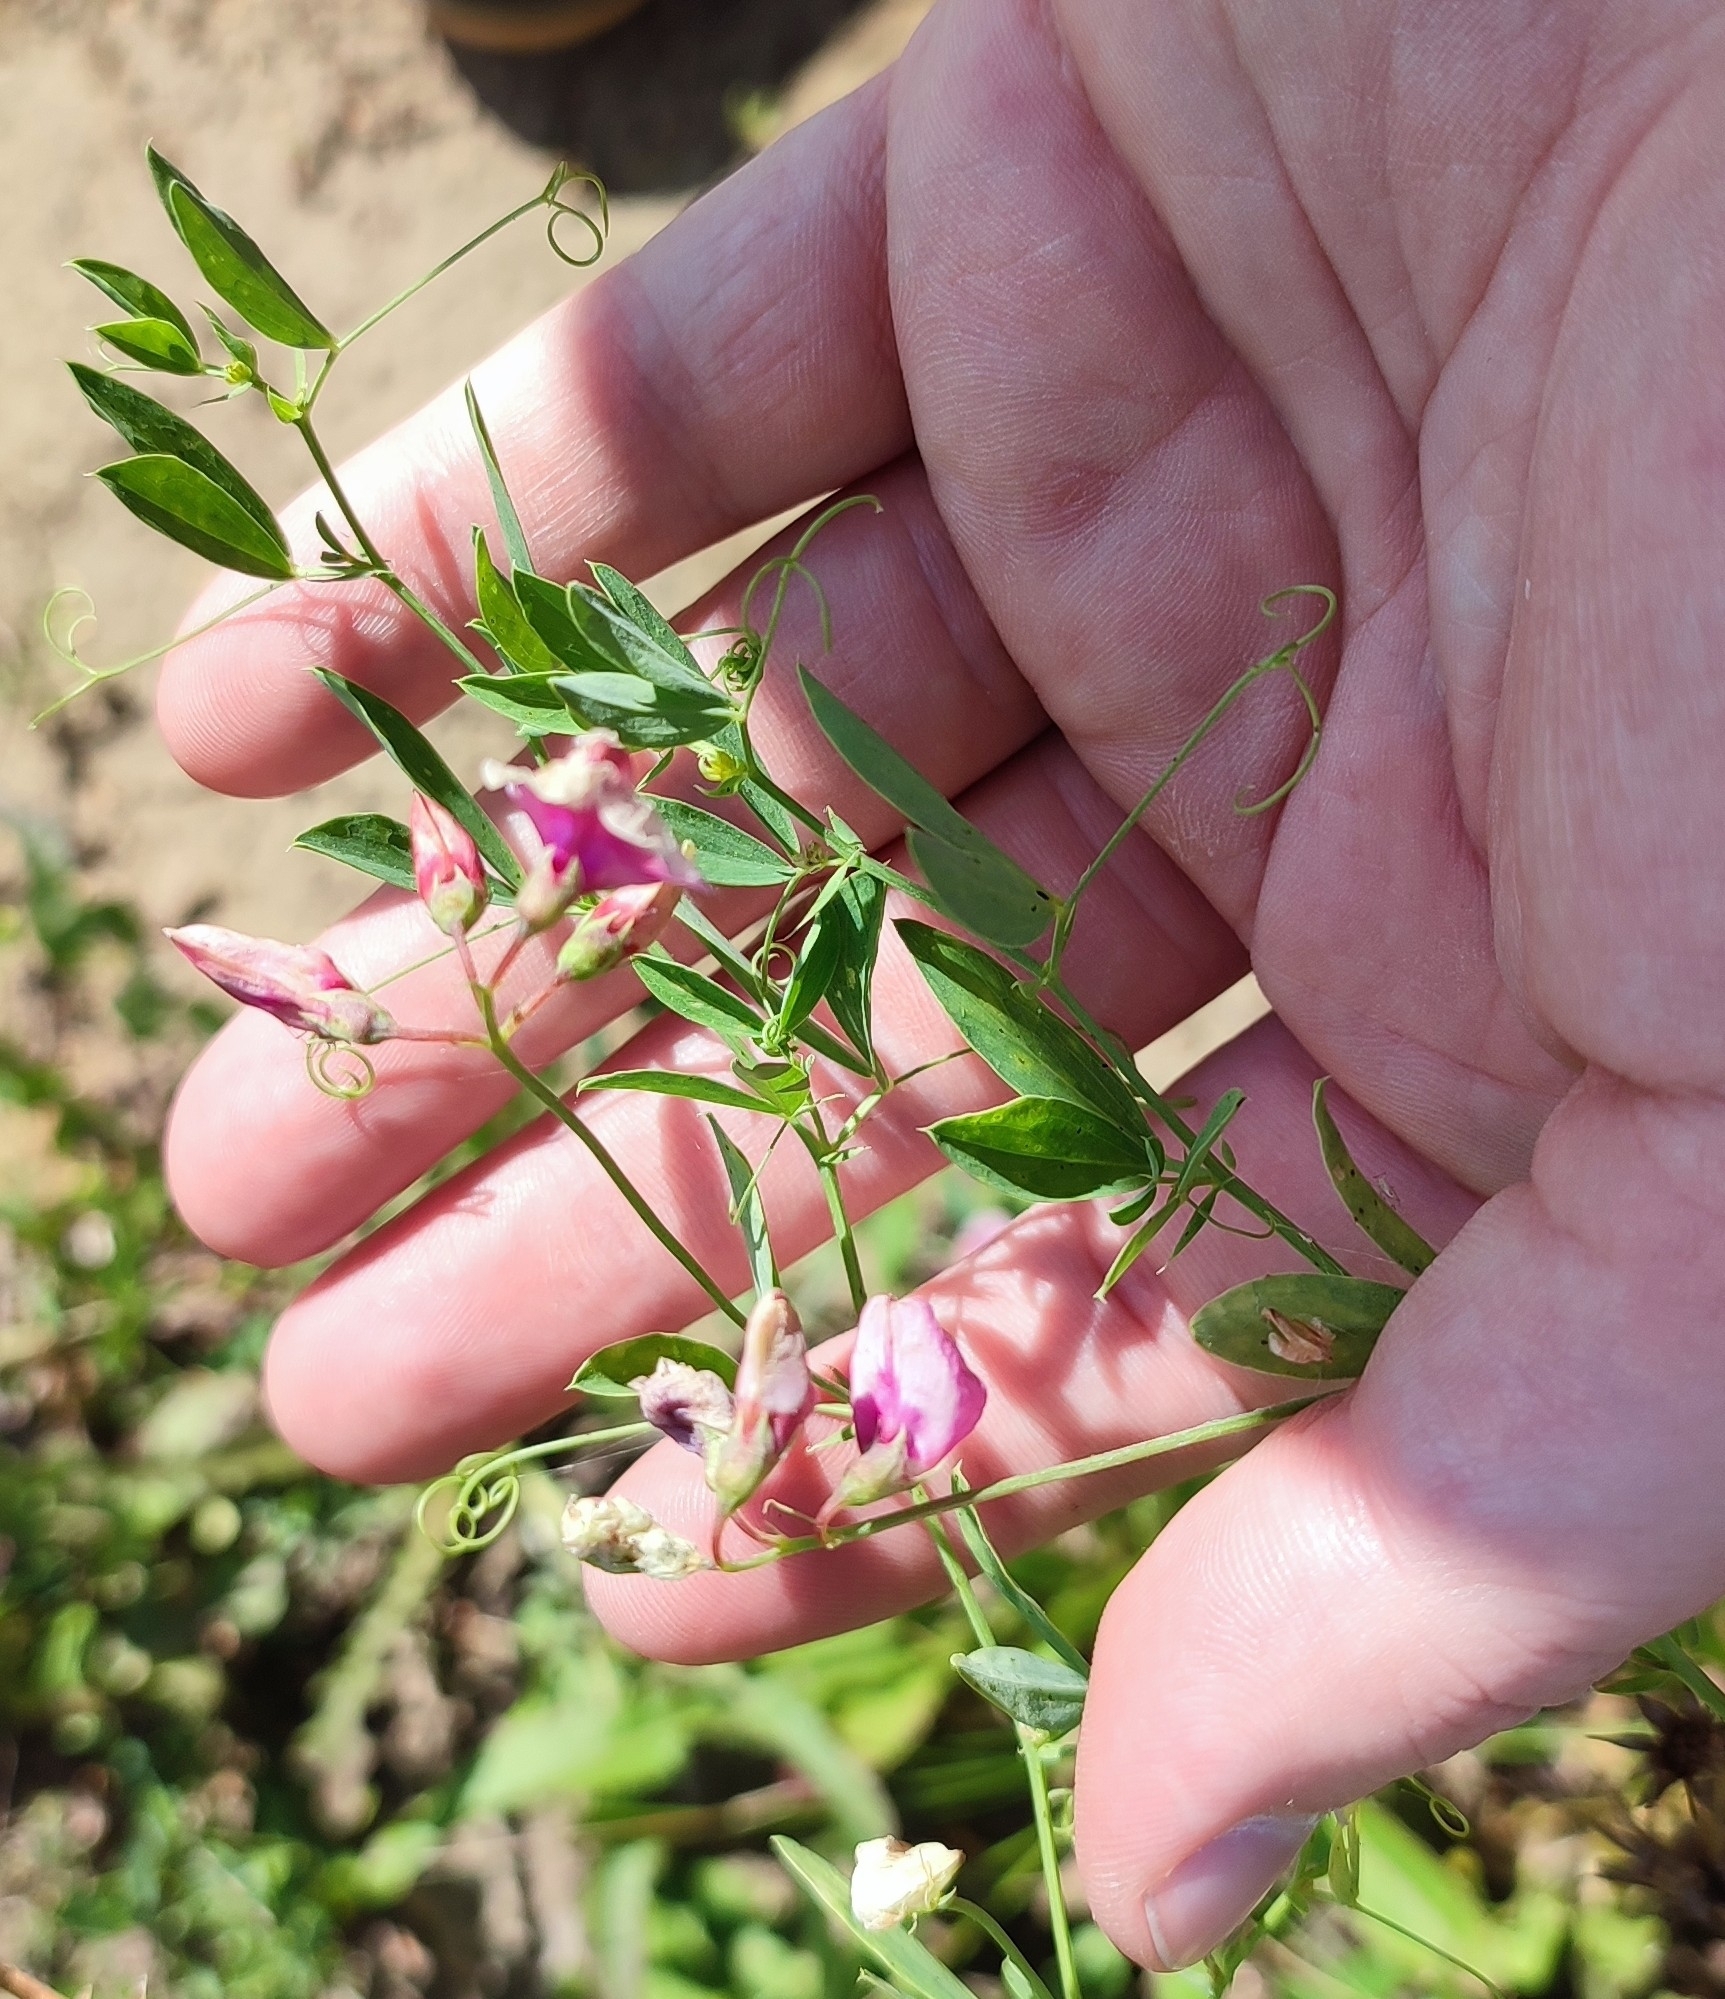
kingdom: Plantae
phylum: Tracheophyta
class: Magnoliopsida
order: Fabales
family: Fabaceae
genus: Lathyrus
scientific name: Lathyrus tuberosus
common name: Tuberous pea
